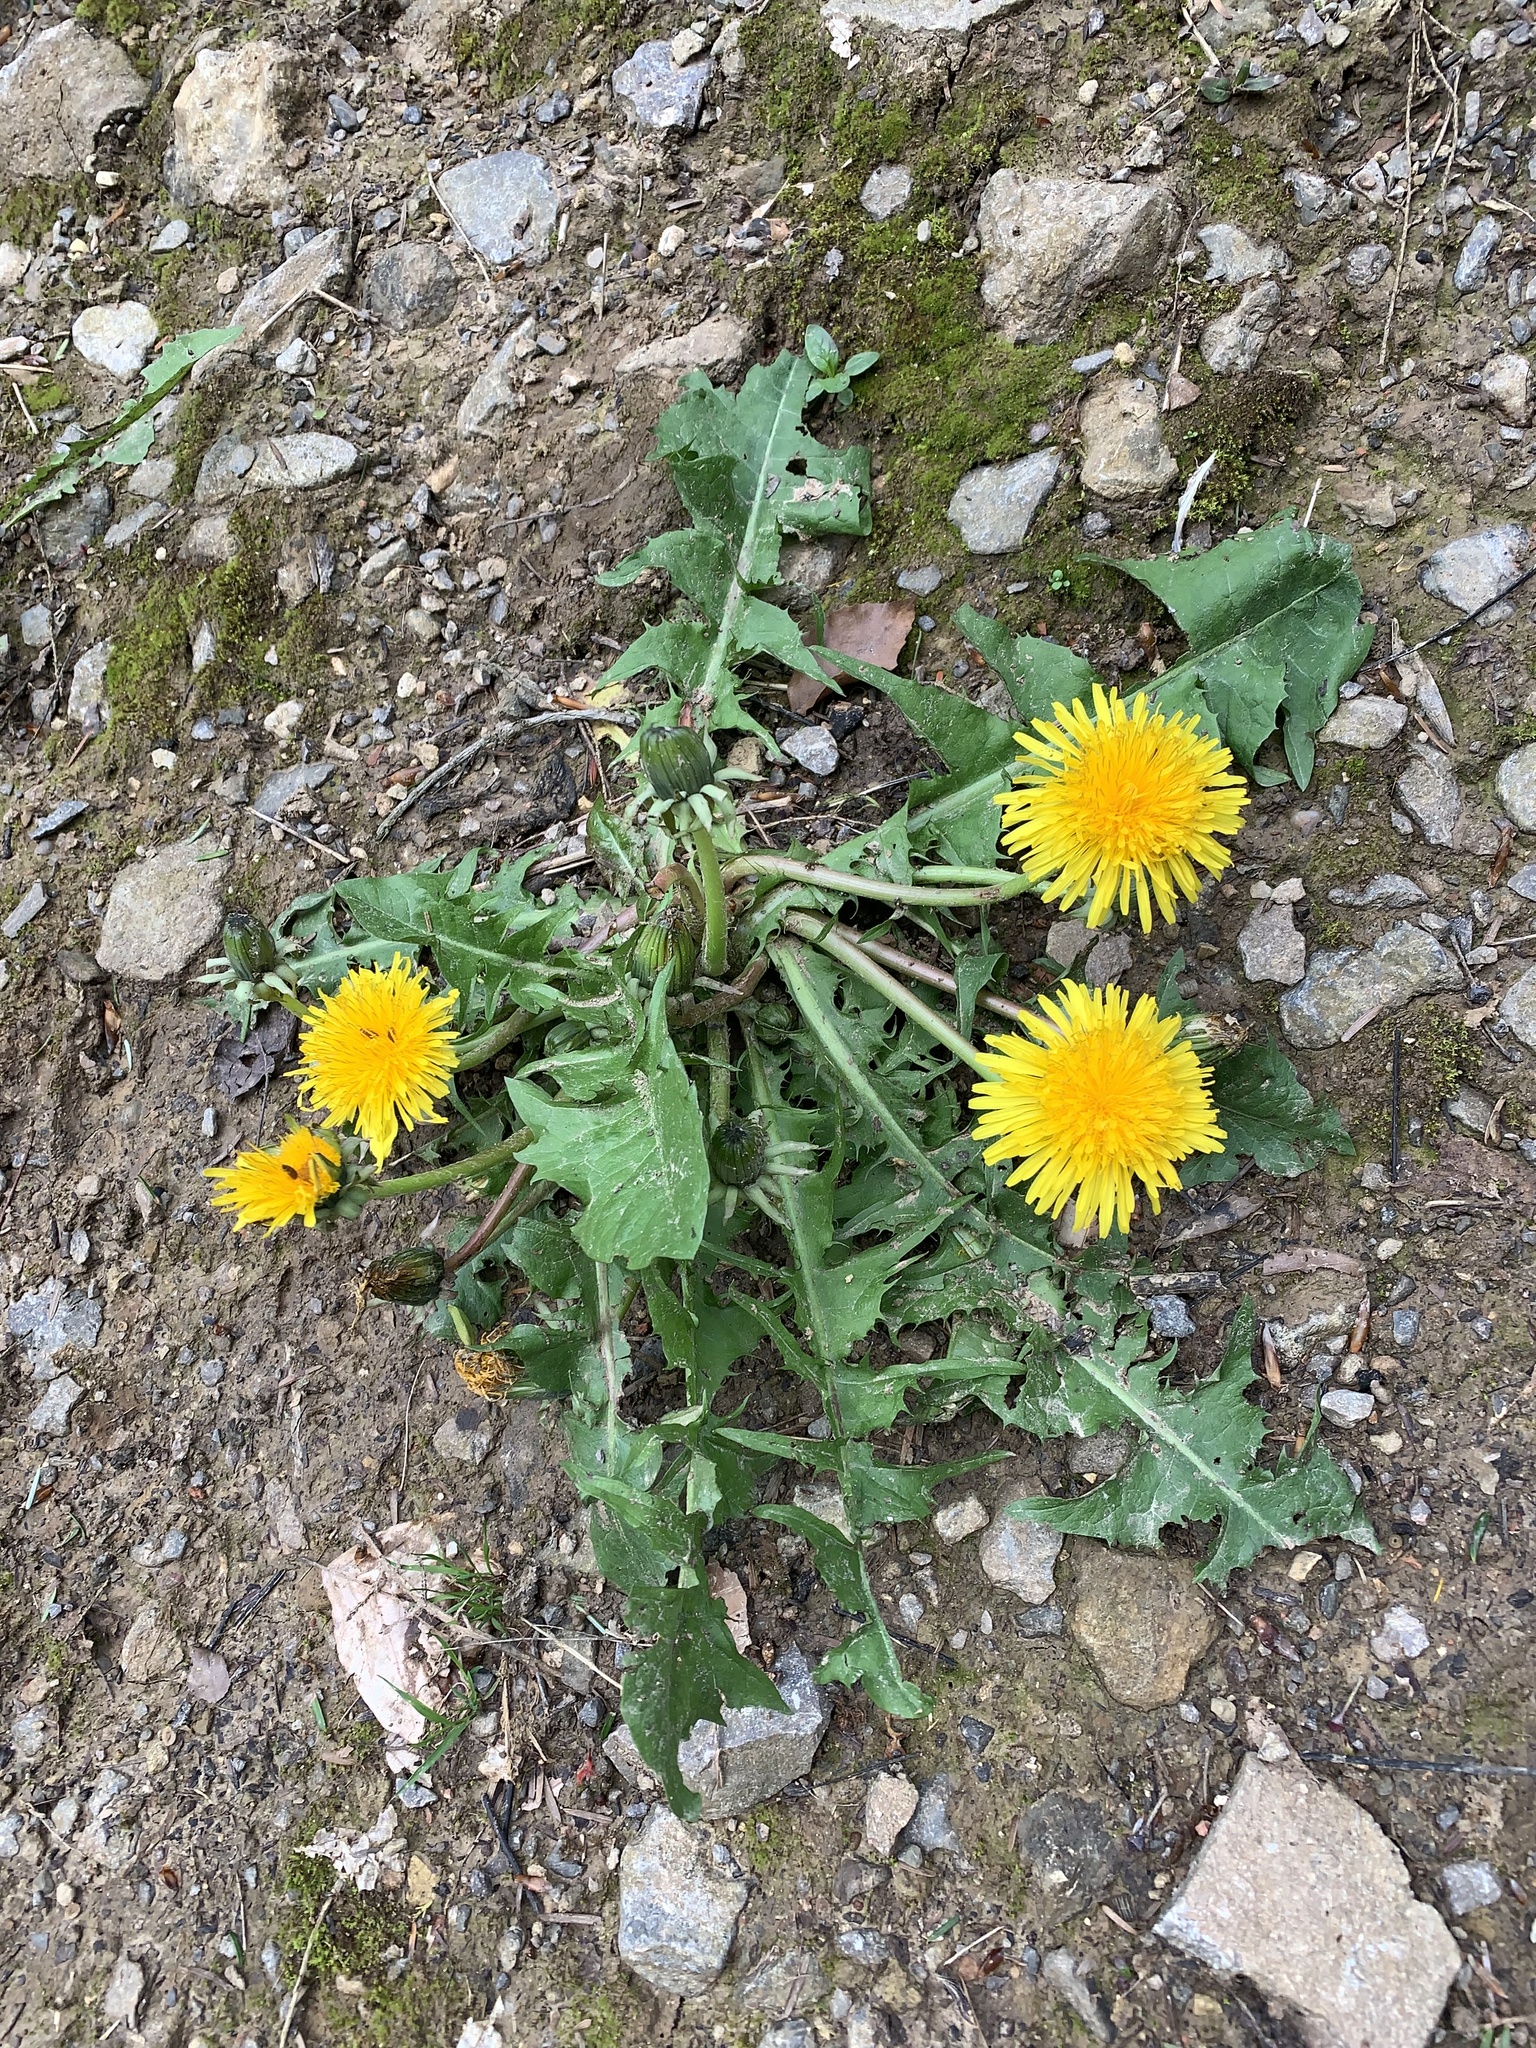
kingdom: Plantae
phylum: Tracheophyta
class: Magnoliopsida
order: Asterales
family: Asteraceae
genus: Taraxacum
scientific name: Taraxacum officinale
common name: Common dandelion
